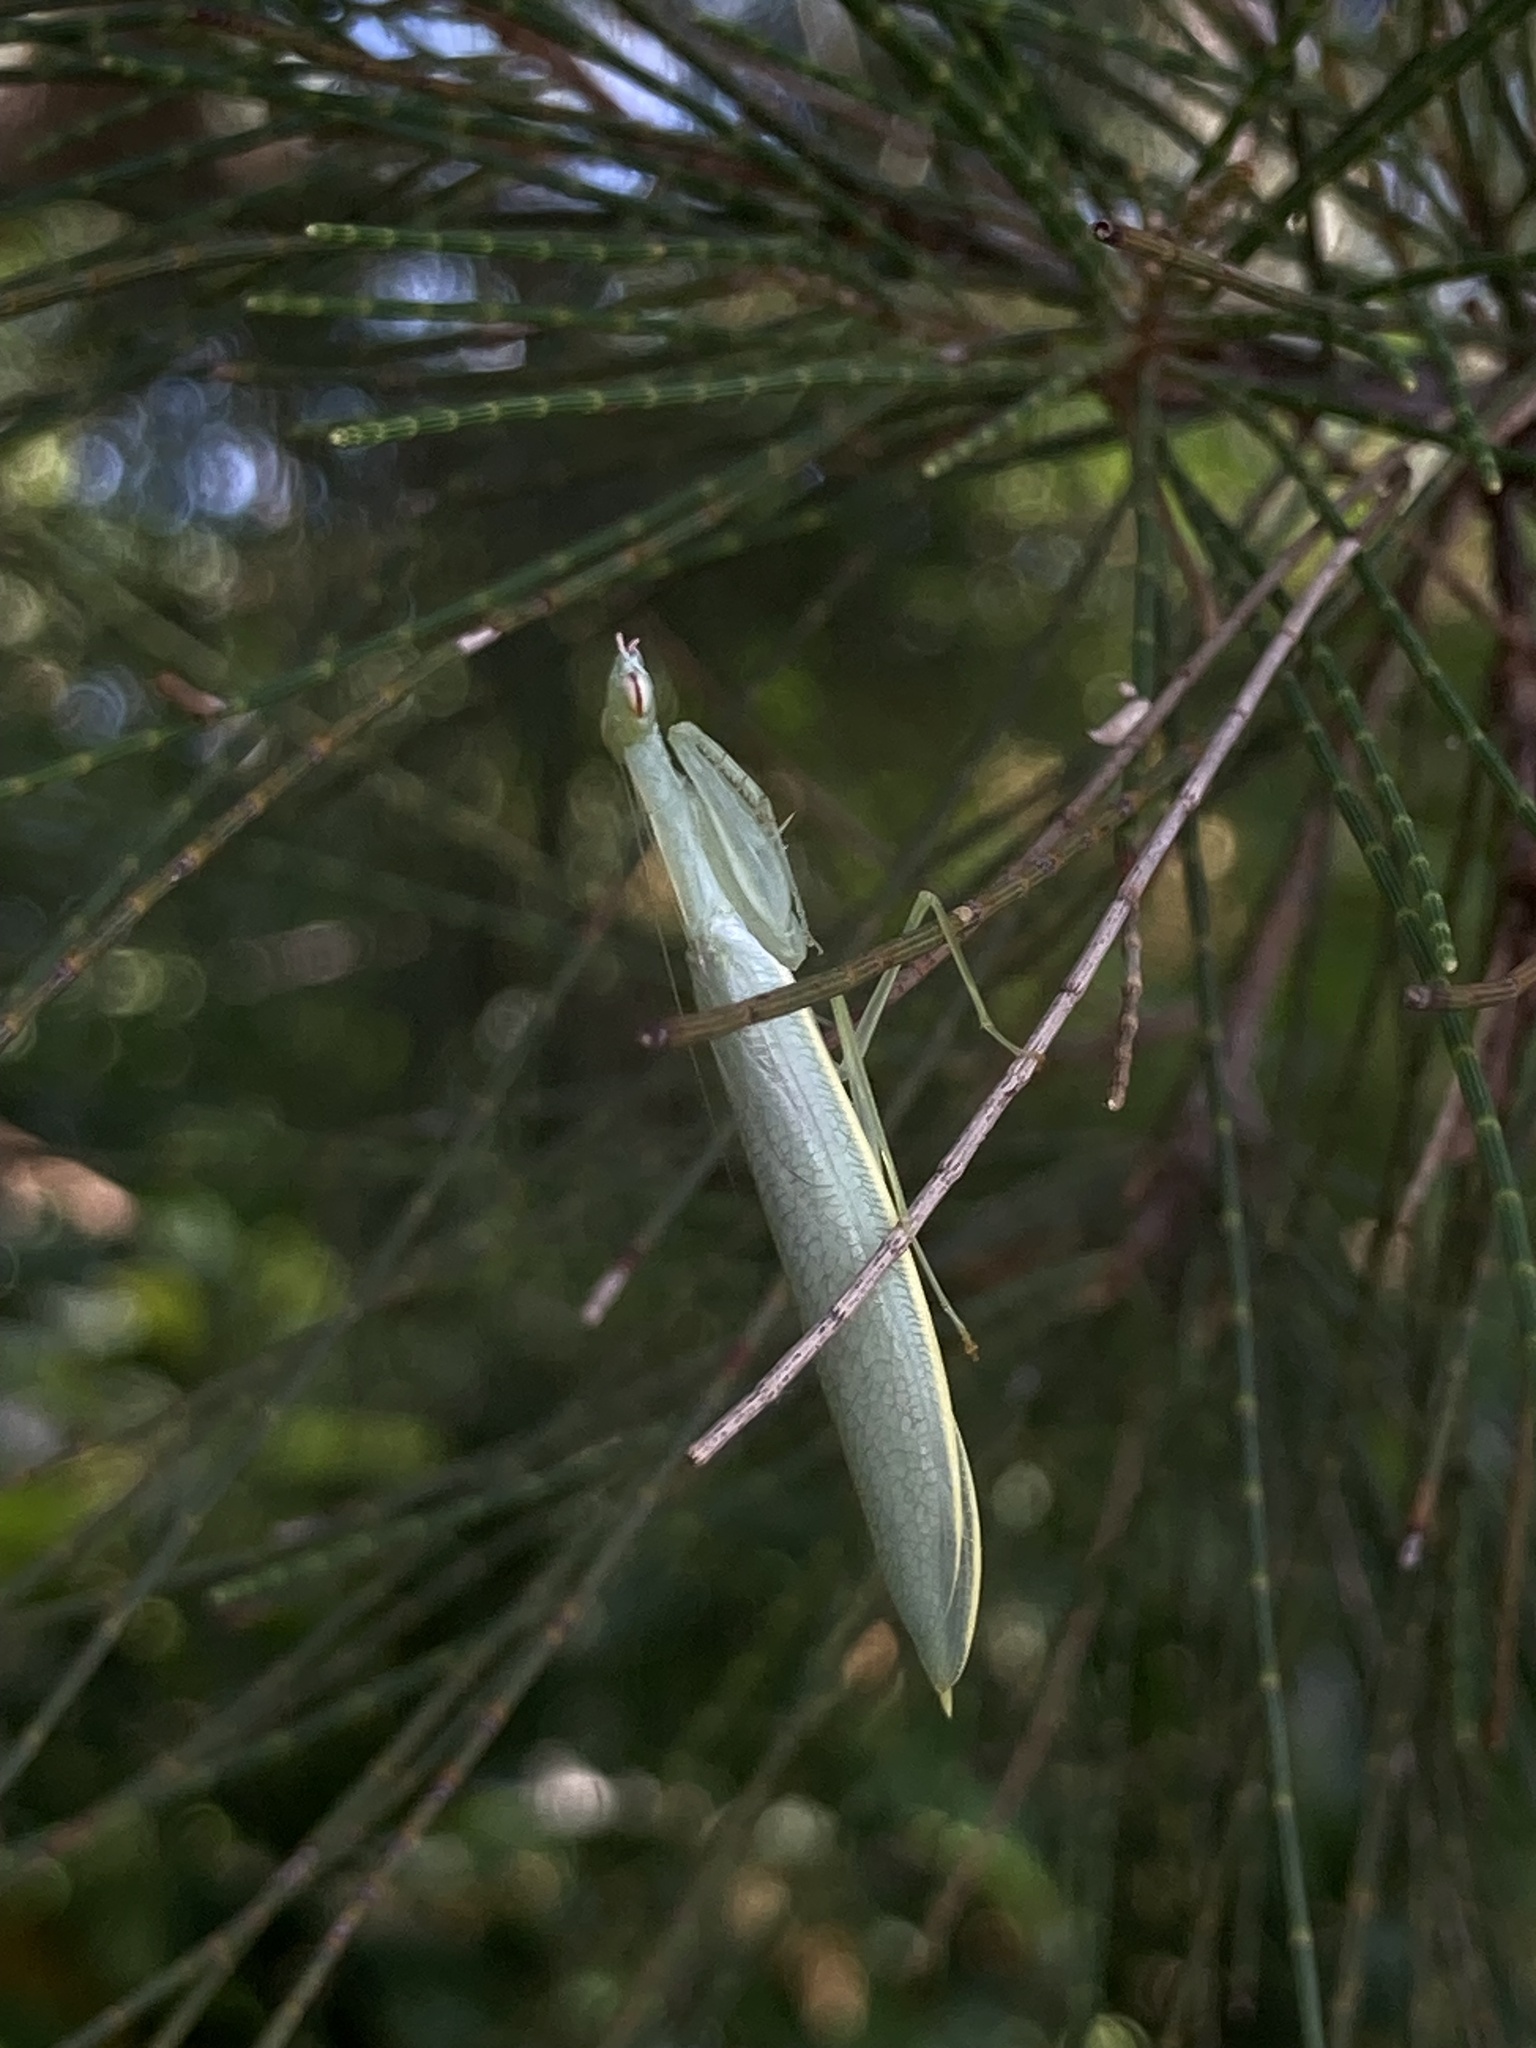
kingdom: Animalia
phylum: Arthropoda
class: Insecta
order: Mantodea
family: Nanomantidae
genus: Kongobatha
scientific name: Kongobatha diademata
